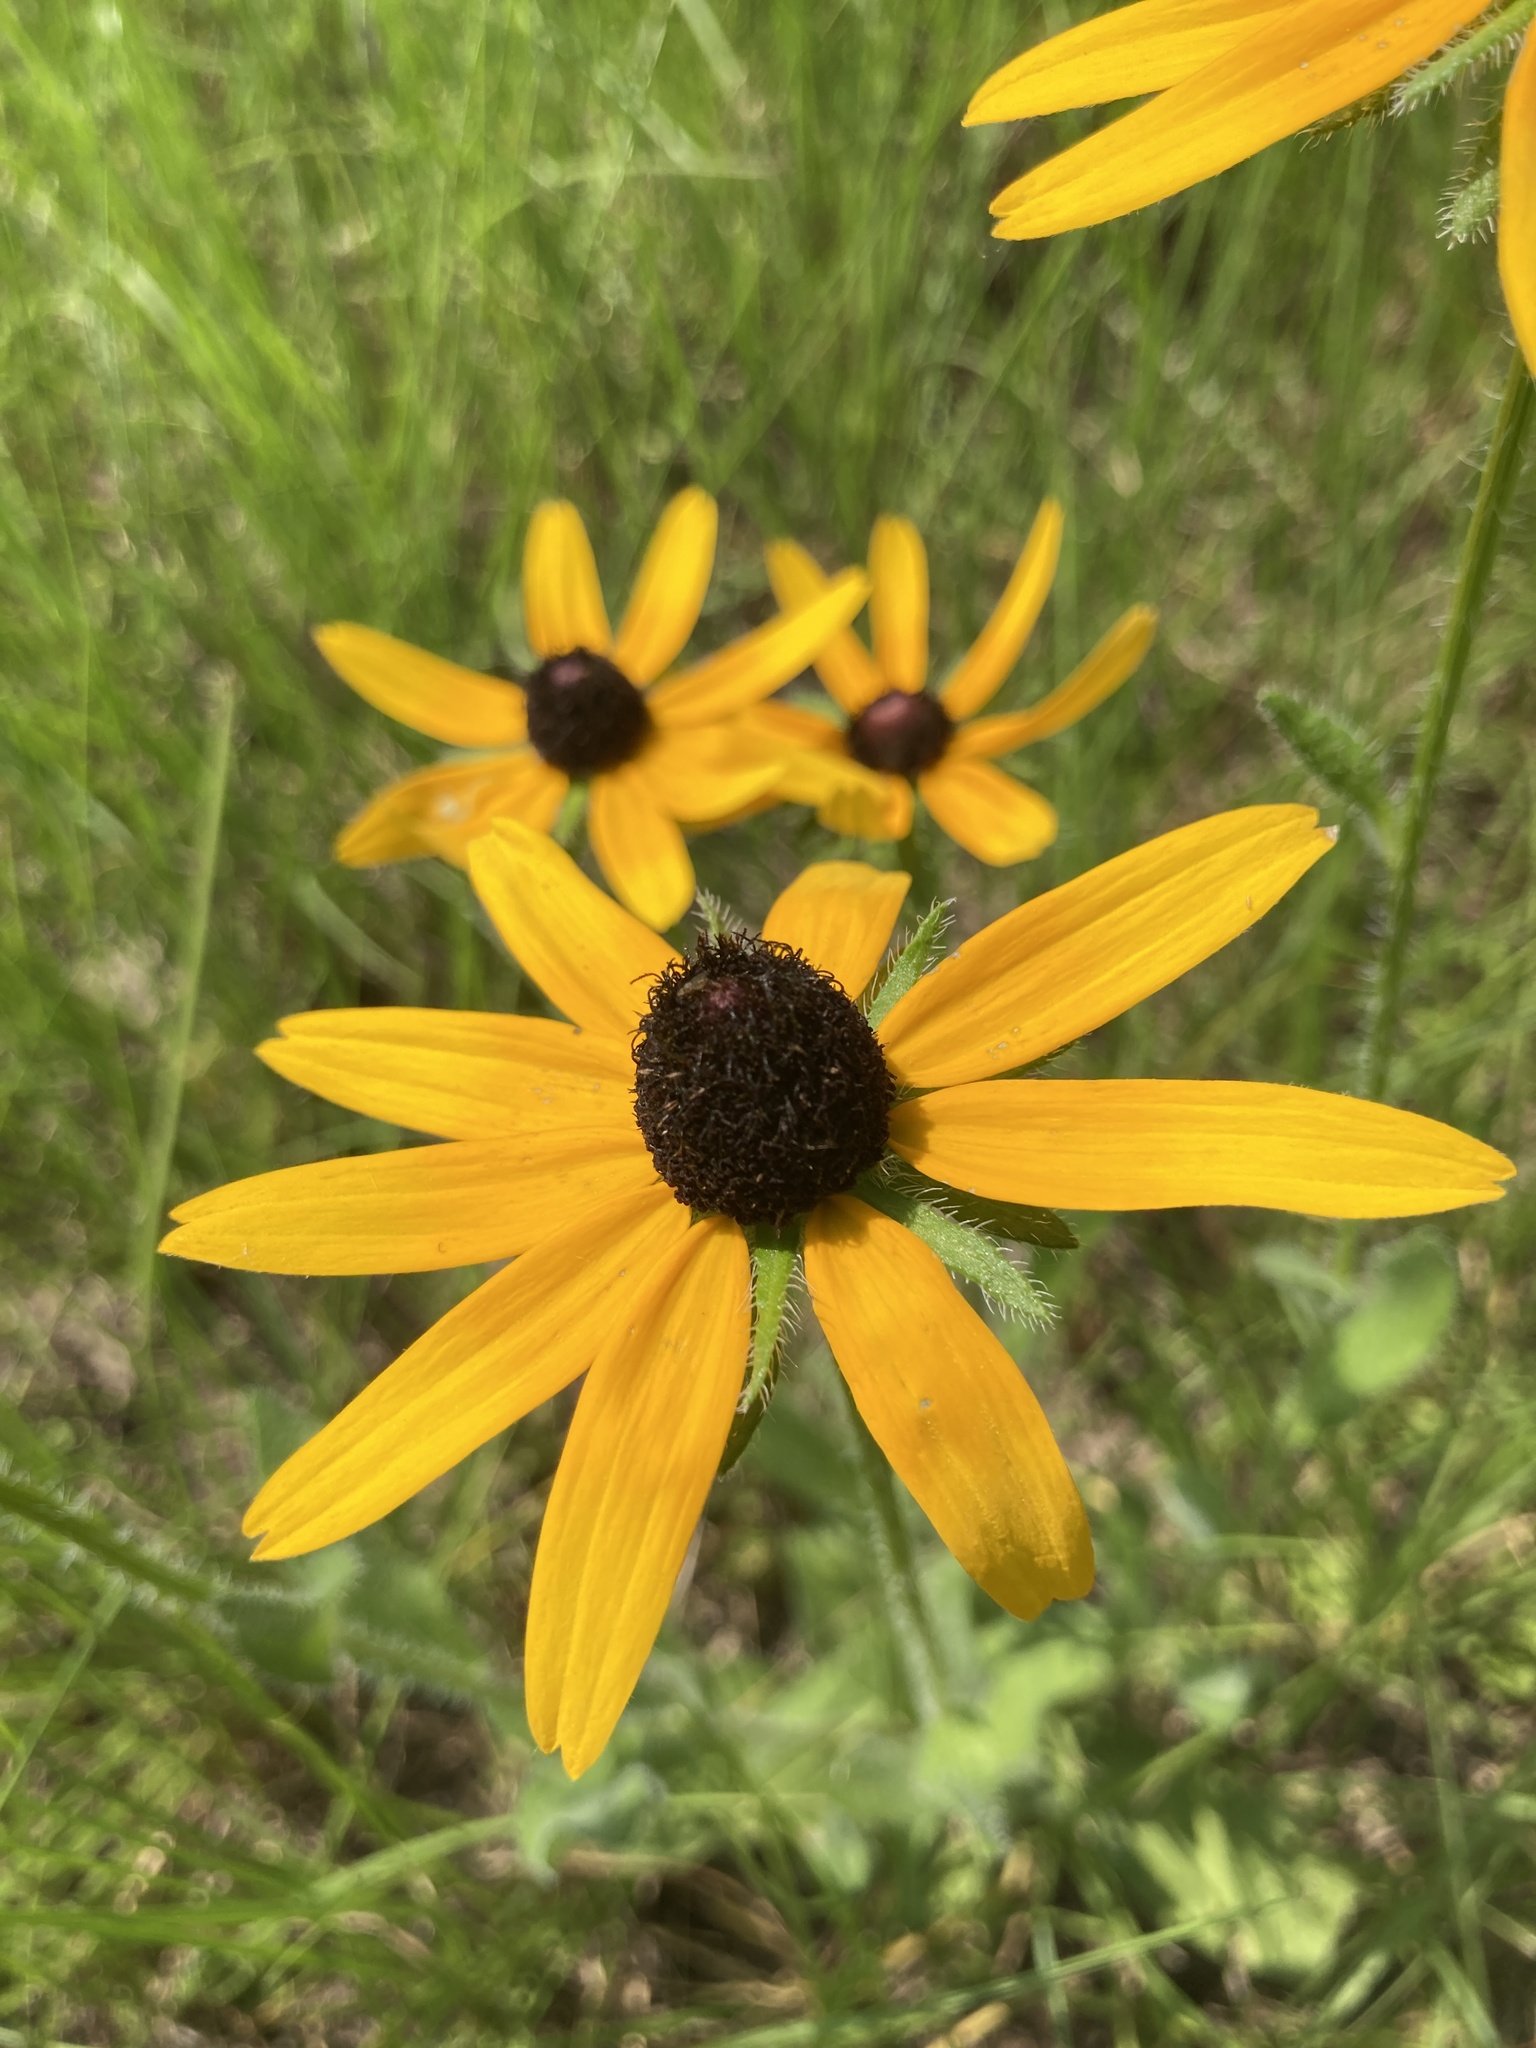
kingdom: Plantae
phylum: Tracheophyta
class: Magnoliopsida
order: Asterales
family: Asteraceae
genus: Rudbeckia
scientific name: Rudbeckia hirta
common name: Black-eyed-susan
